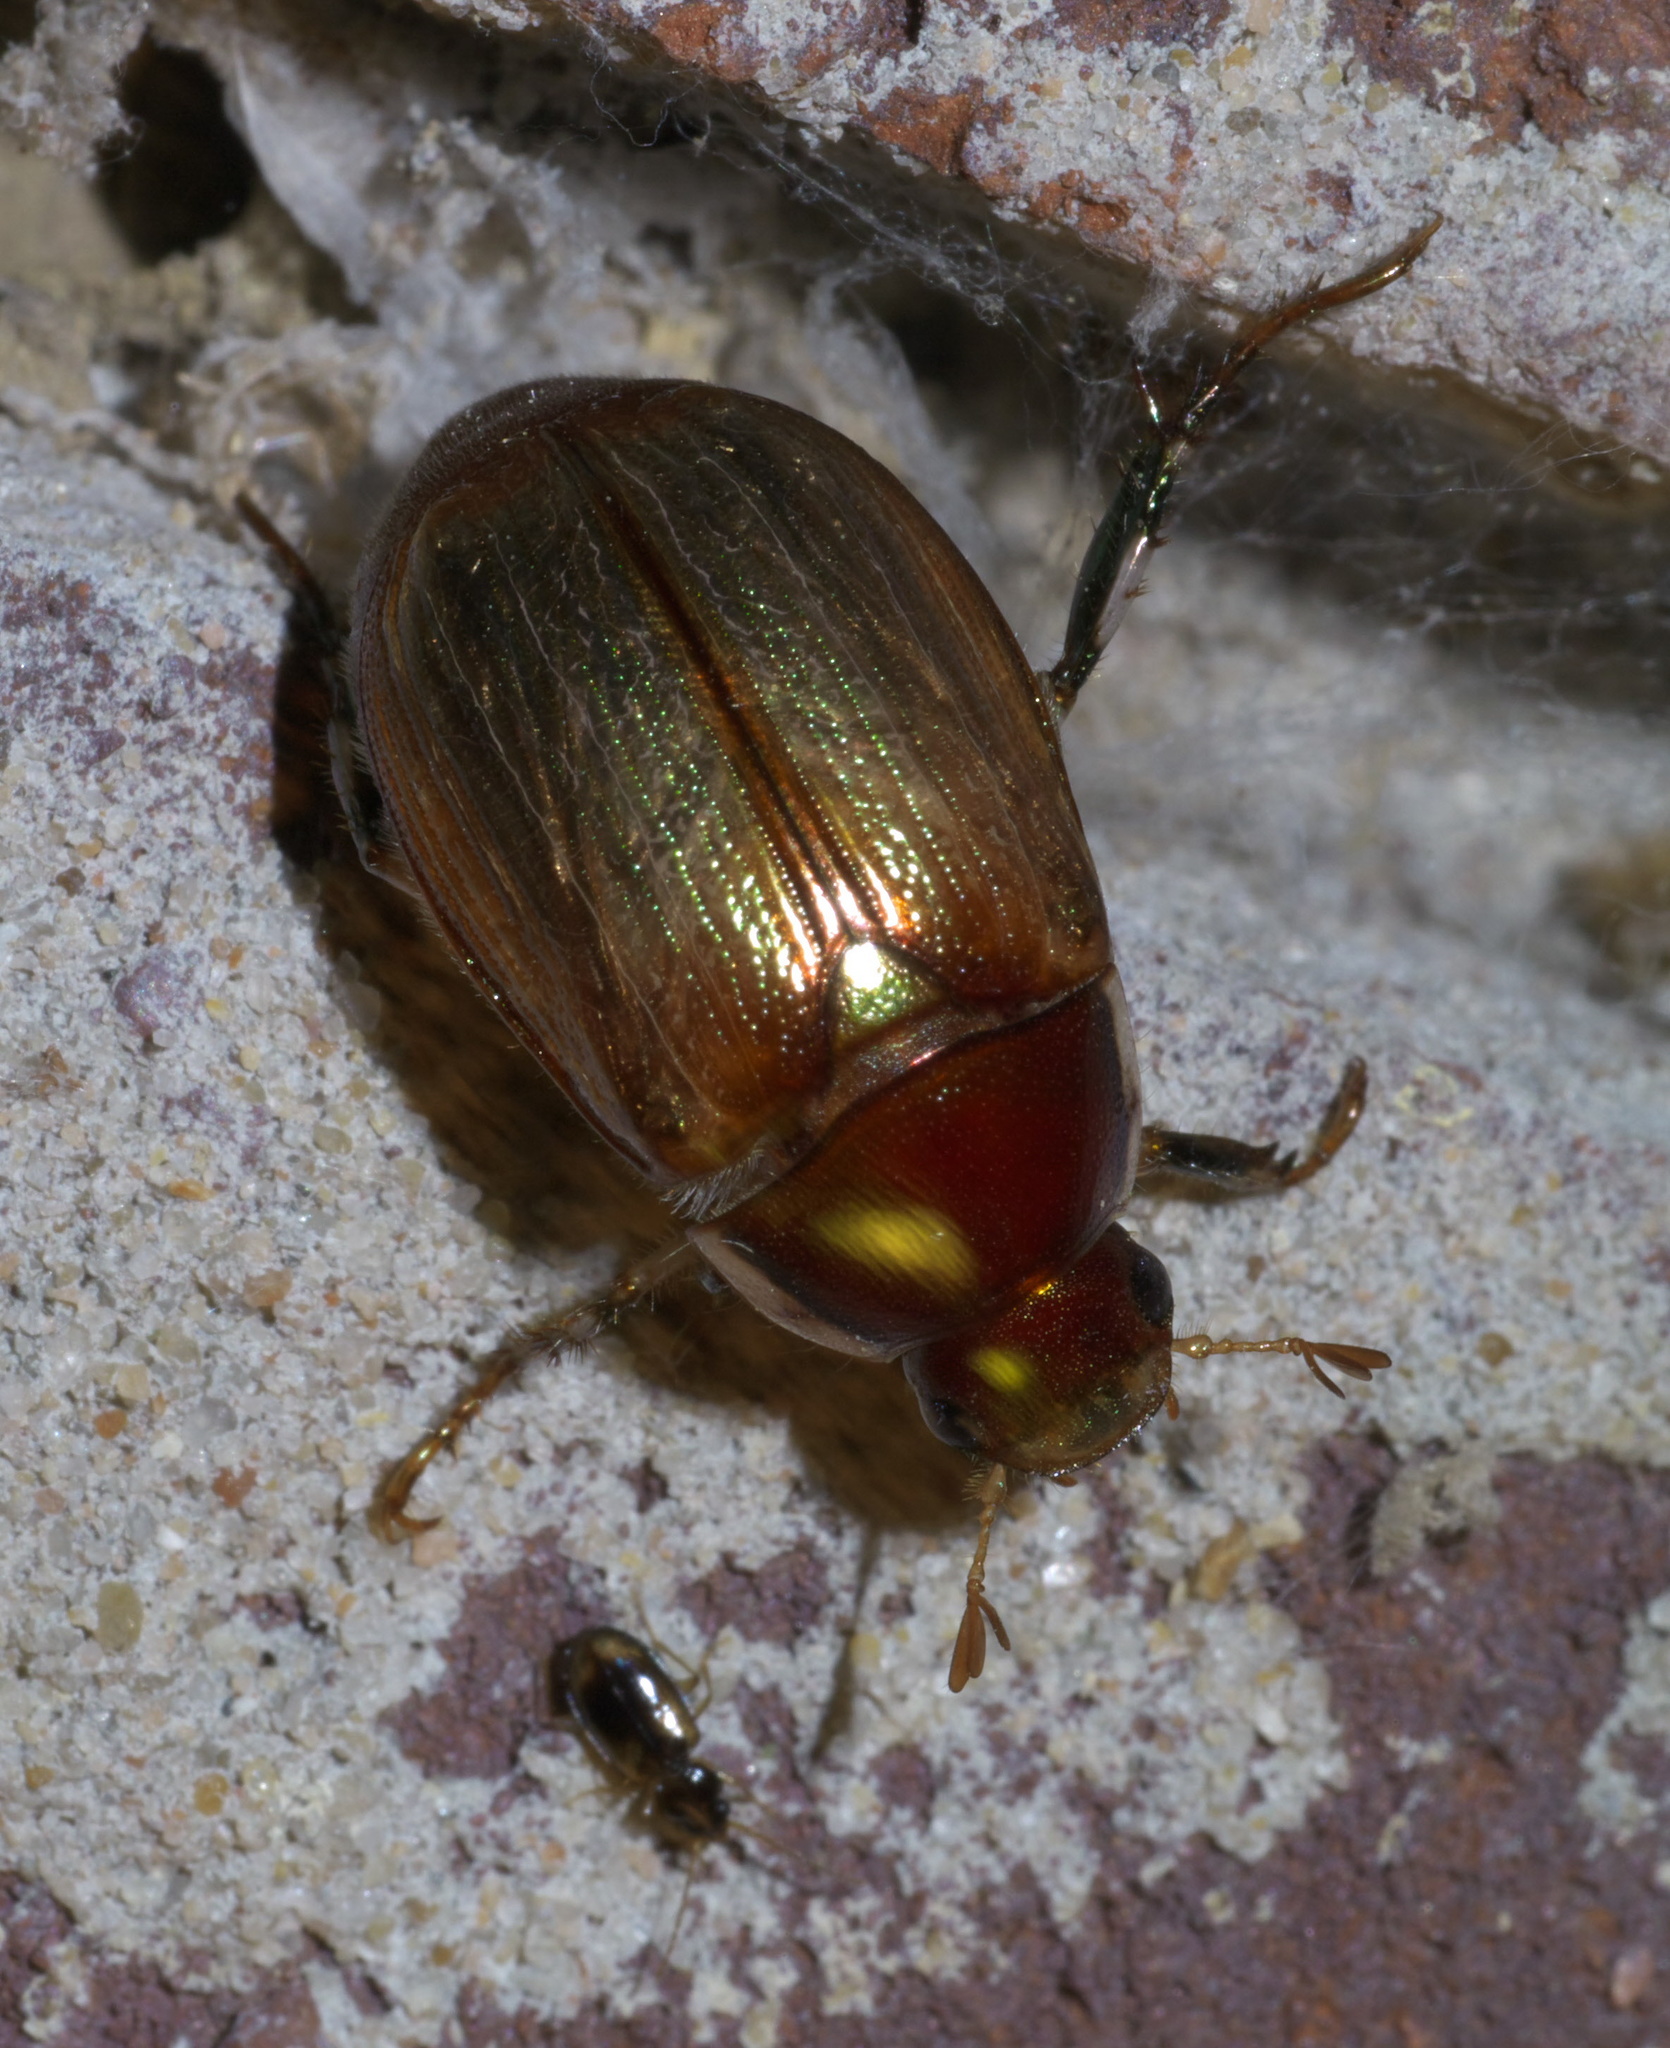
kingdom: Animalia
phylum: Arthropoda
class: Insecta
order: Coleoptera
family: Scarabaeidae
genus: Callistethus
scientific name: Callistethus marginatus
